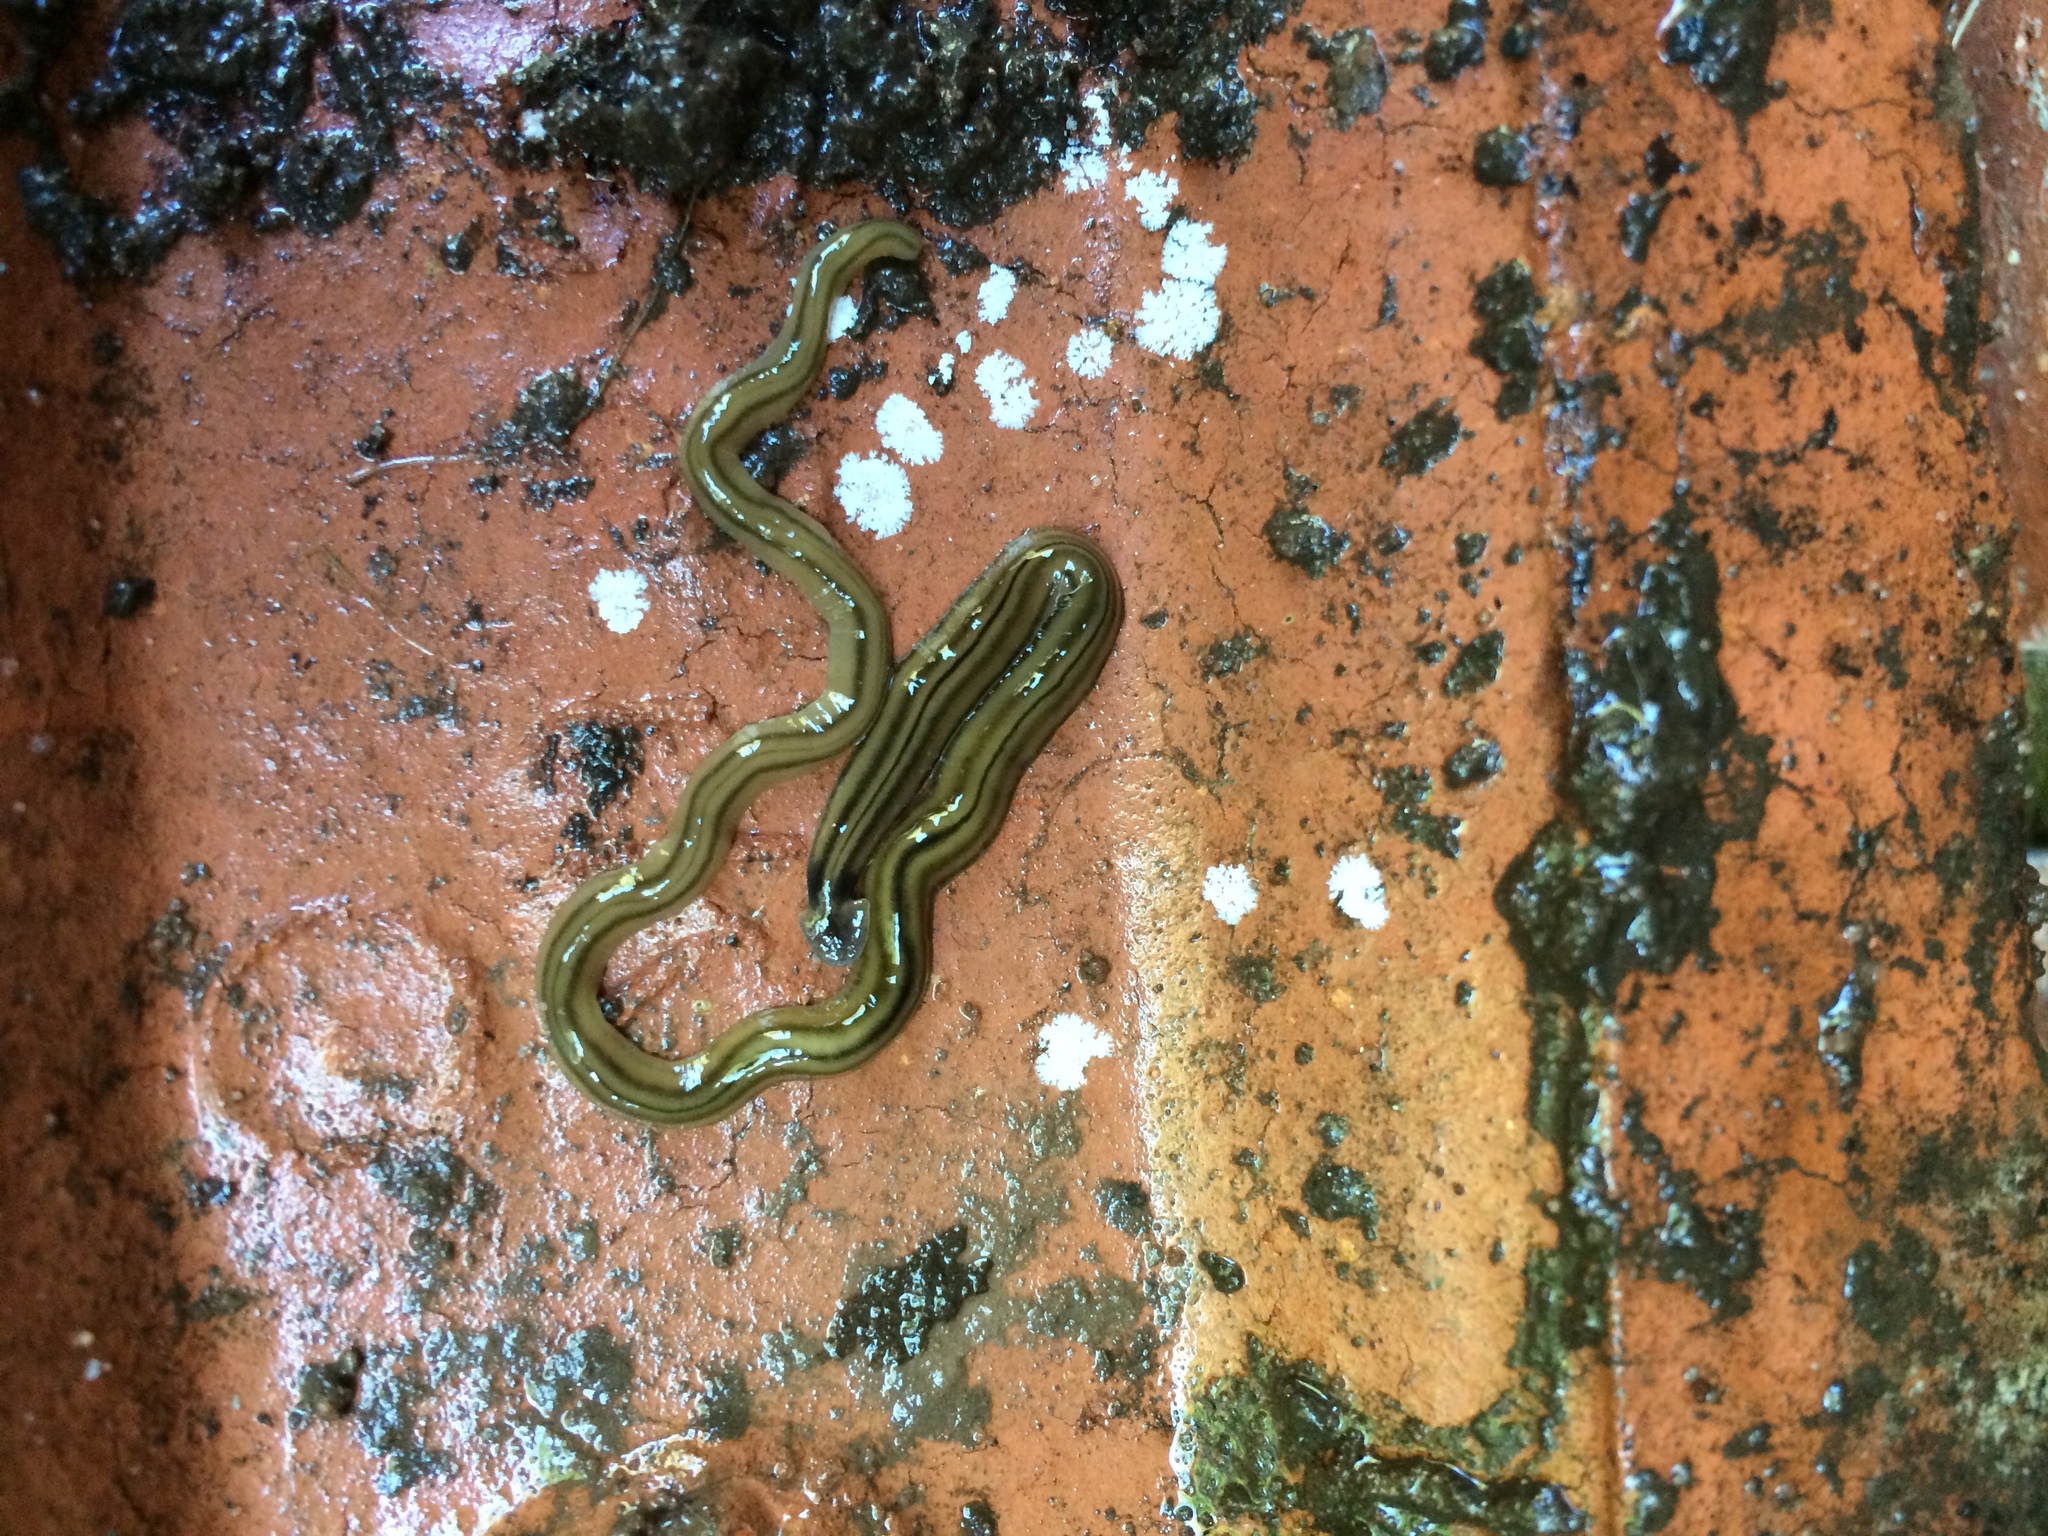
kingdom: Animalia
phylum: Platyhelminthes
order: Tricladida
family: Geoplanidae
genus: Bipalium
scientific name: Bipalium kewense
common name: Hammerhead flatworm
